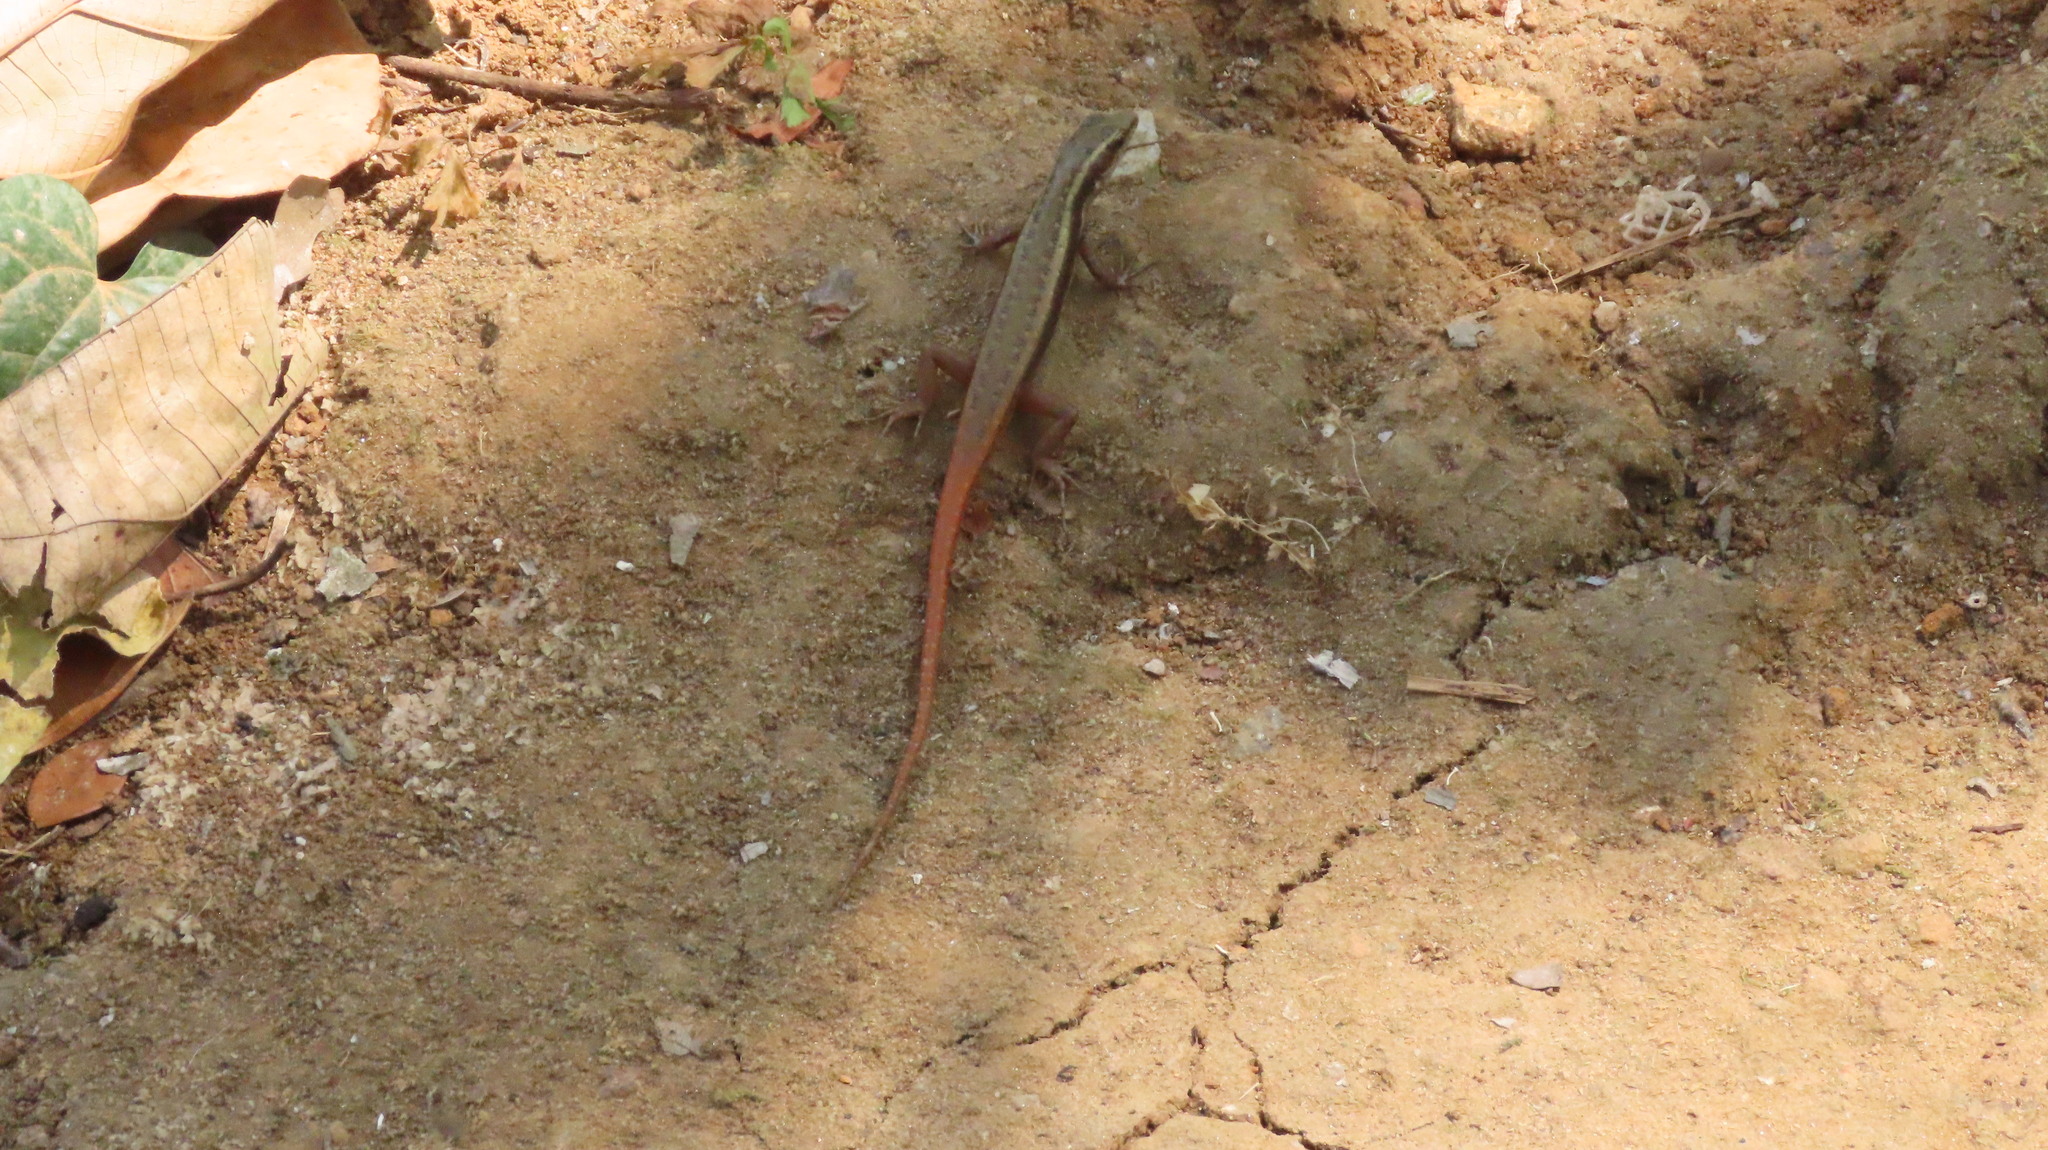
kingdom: Animalia
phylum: Chordata
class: Squamata
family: Scincidae
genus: Sphenomorphus
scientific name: Sphenomorphus dussumieri
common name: Dussumier's forest skink
